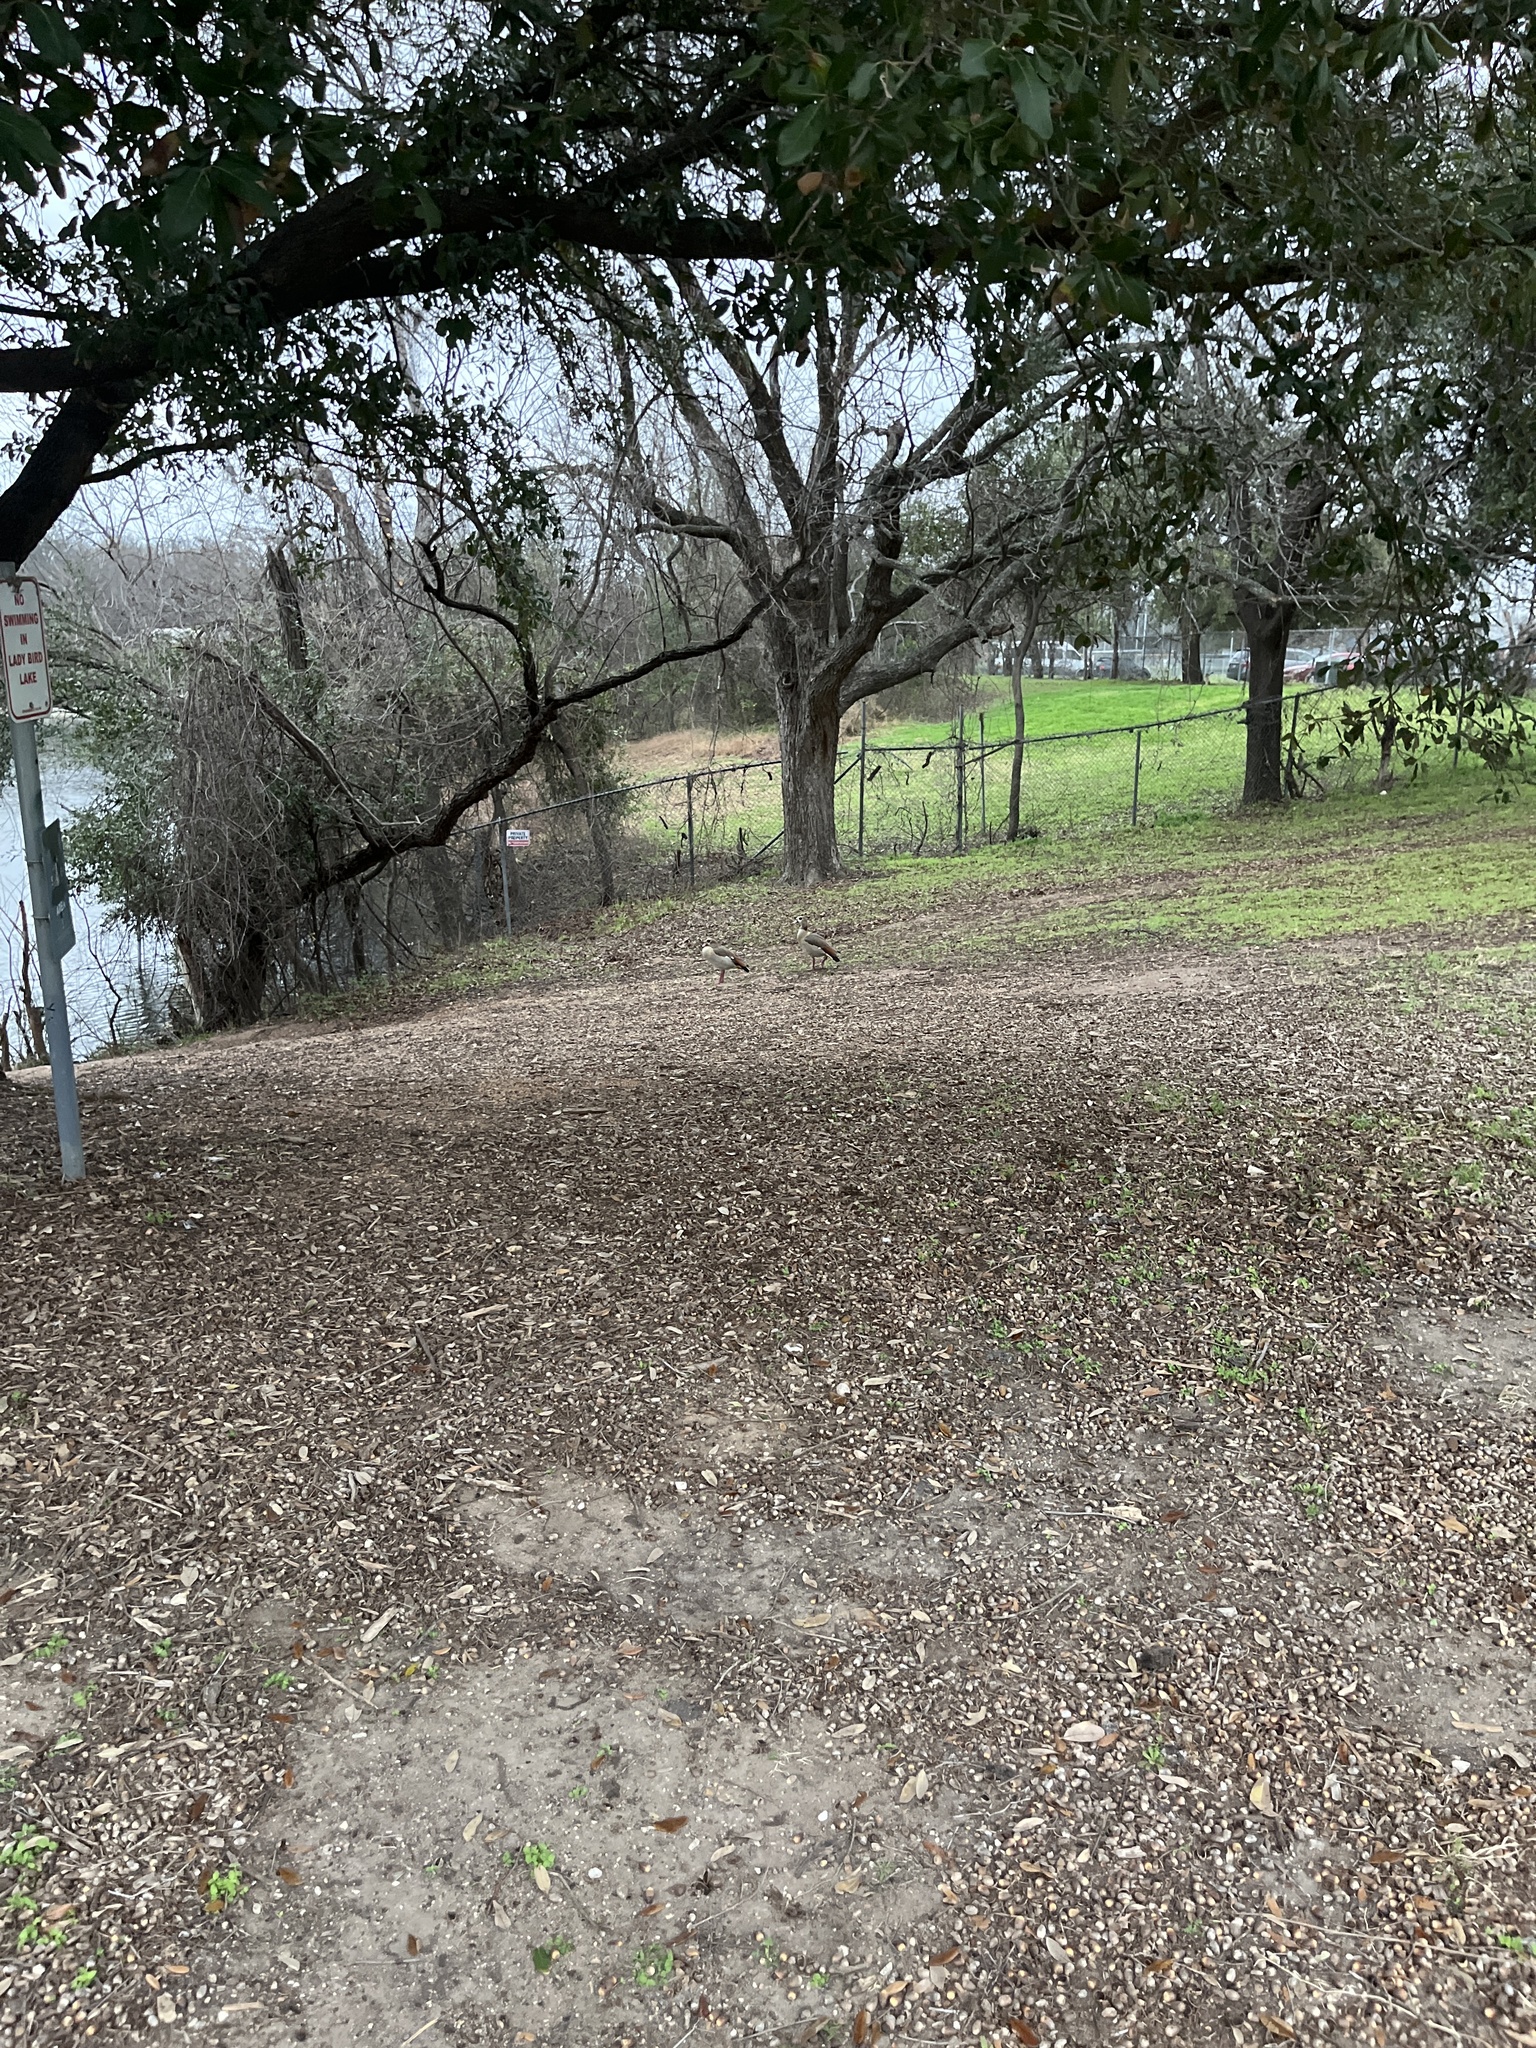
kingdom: Animalia
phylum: Chordata
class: Aves
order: Anseriformes
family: Anatidae
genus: Alopochen
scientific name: Alopochen aegyptiaca
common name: Egyptian goose
